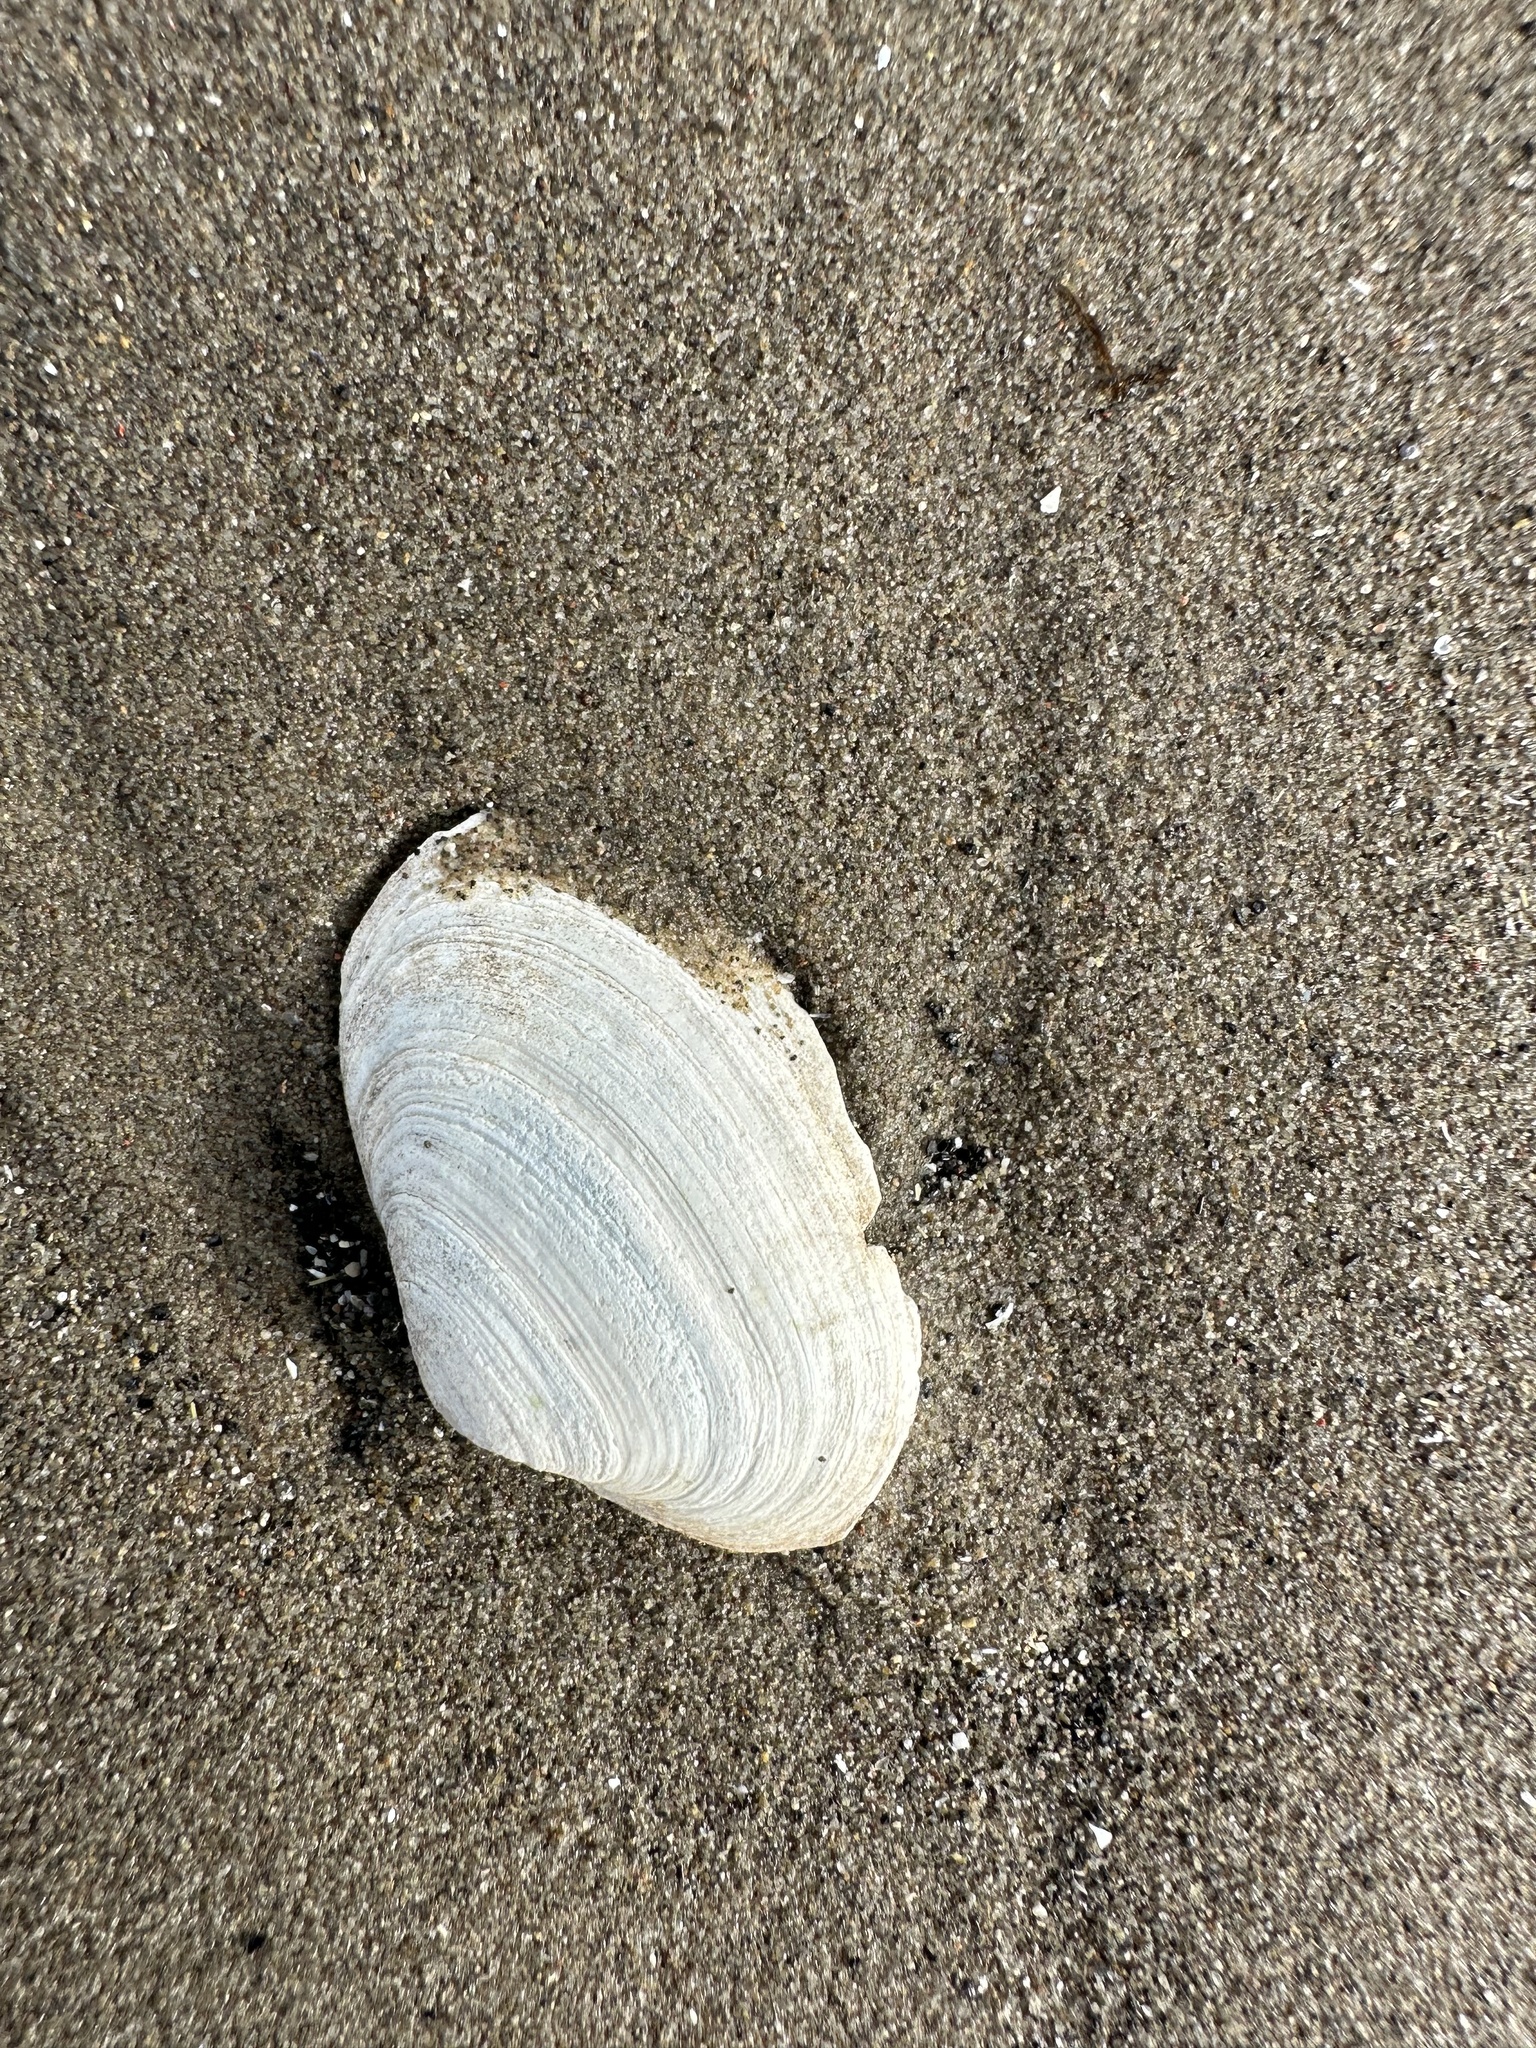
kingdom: Animalia
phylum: Mollusca
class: Bivalvia
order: Myida
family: Myidae
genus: Mya
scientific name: Mya arenaria
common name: Soft-shelled clam
